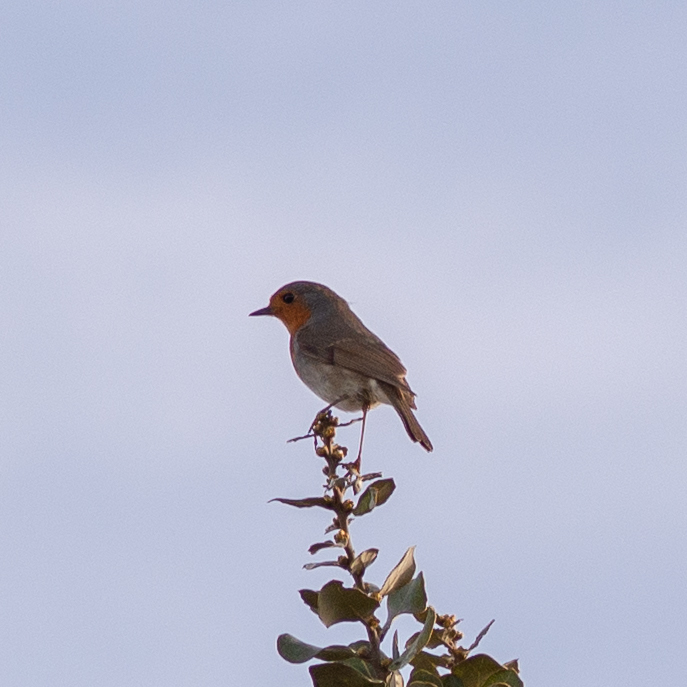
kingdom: Animalia
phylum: Chordata
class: Aves
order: Passeriformes
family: Muscicapidae
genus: Erithacus
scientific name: Erithacus rubecula
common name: European robin
